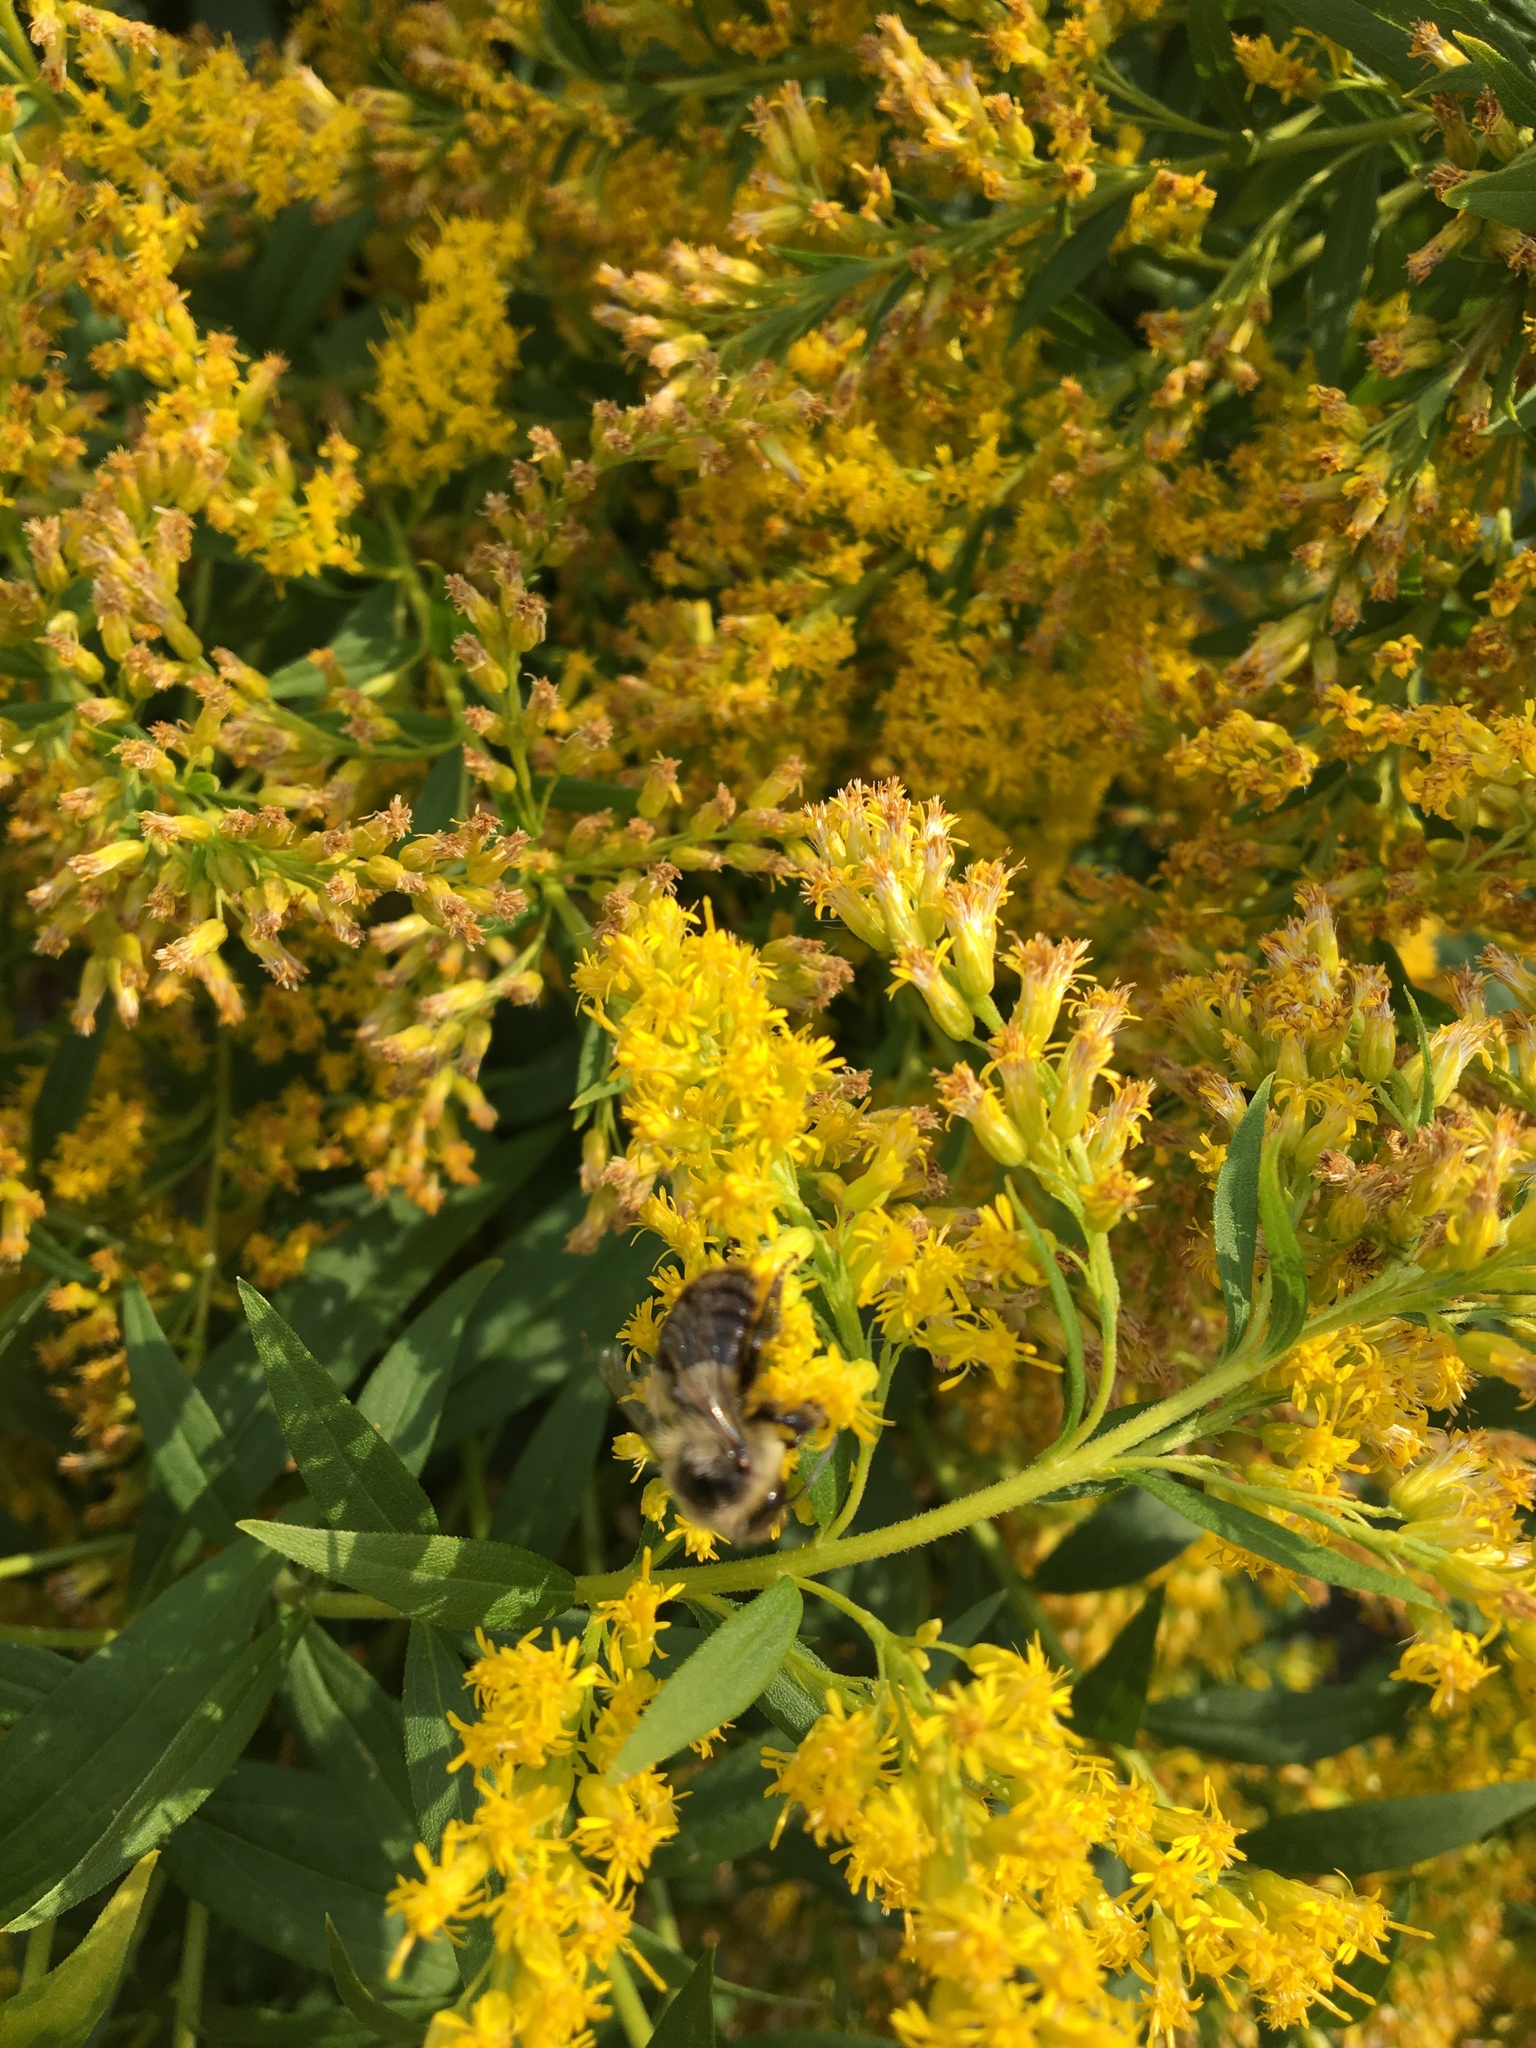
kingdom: Animalia
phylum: Arthropoda
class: Insecta
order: Hymenoptera
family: Apidae
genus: Bombus
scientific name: Bombus impatiens
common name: Common eastern bumble bee
